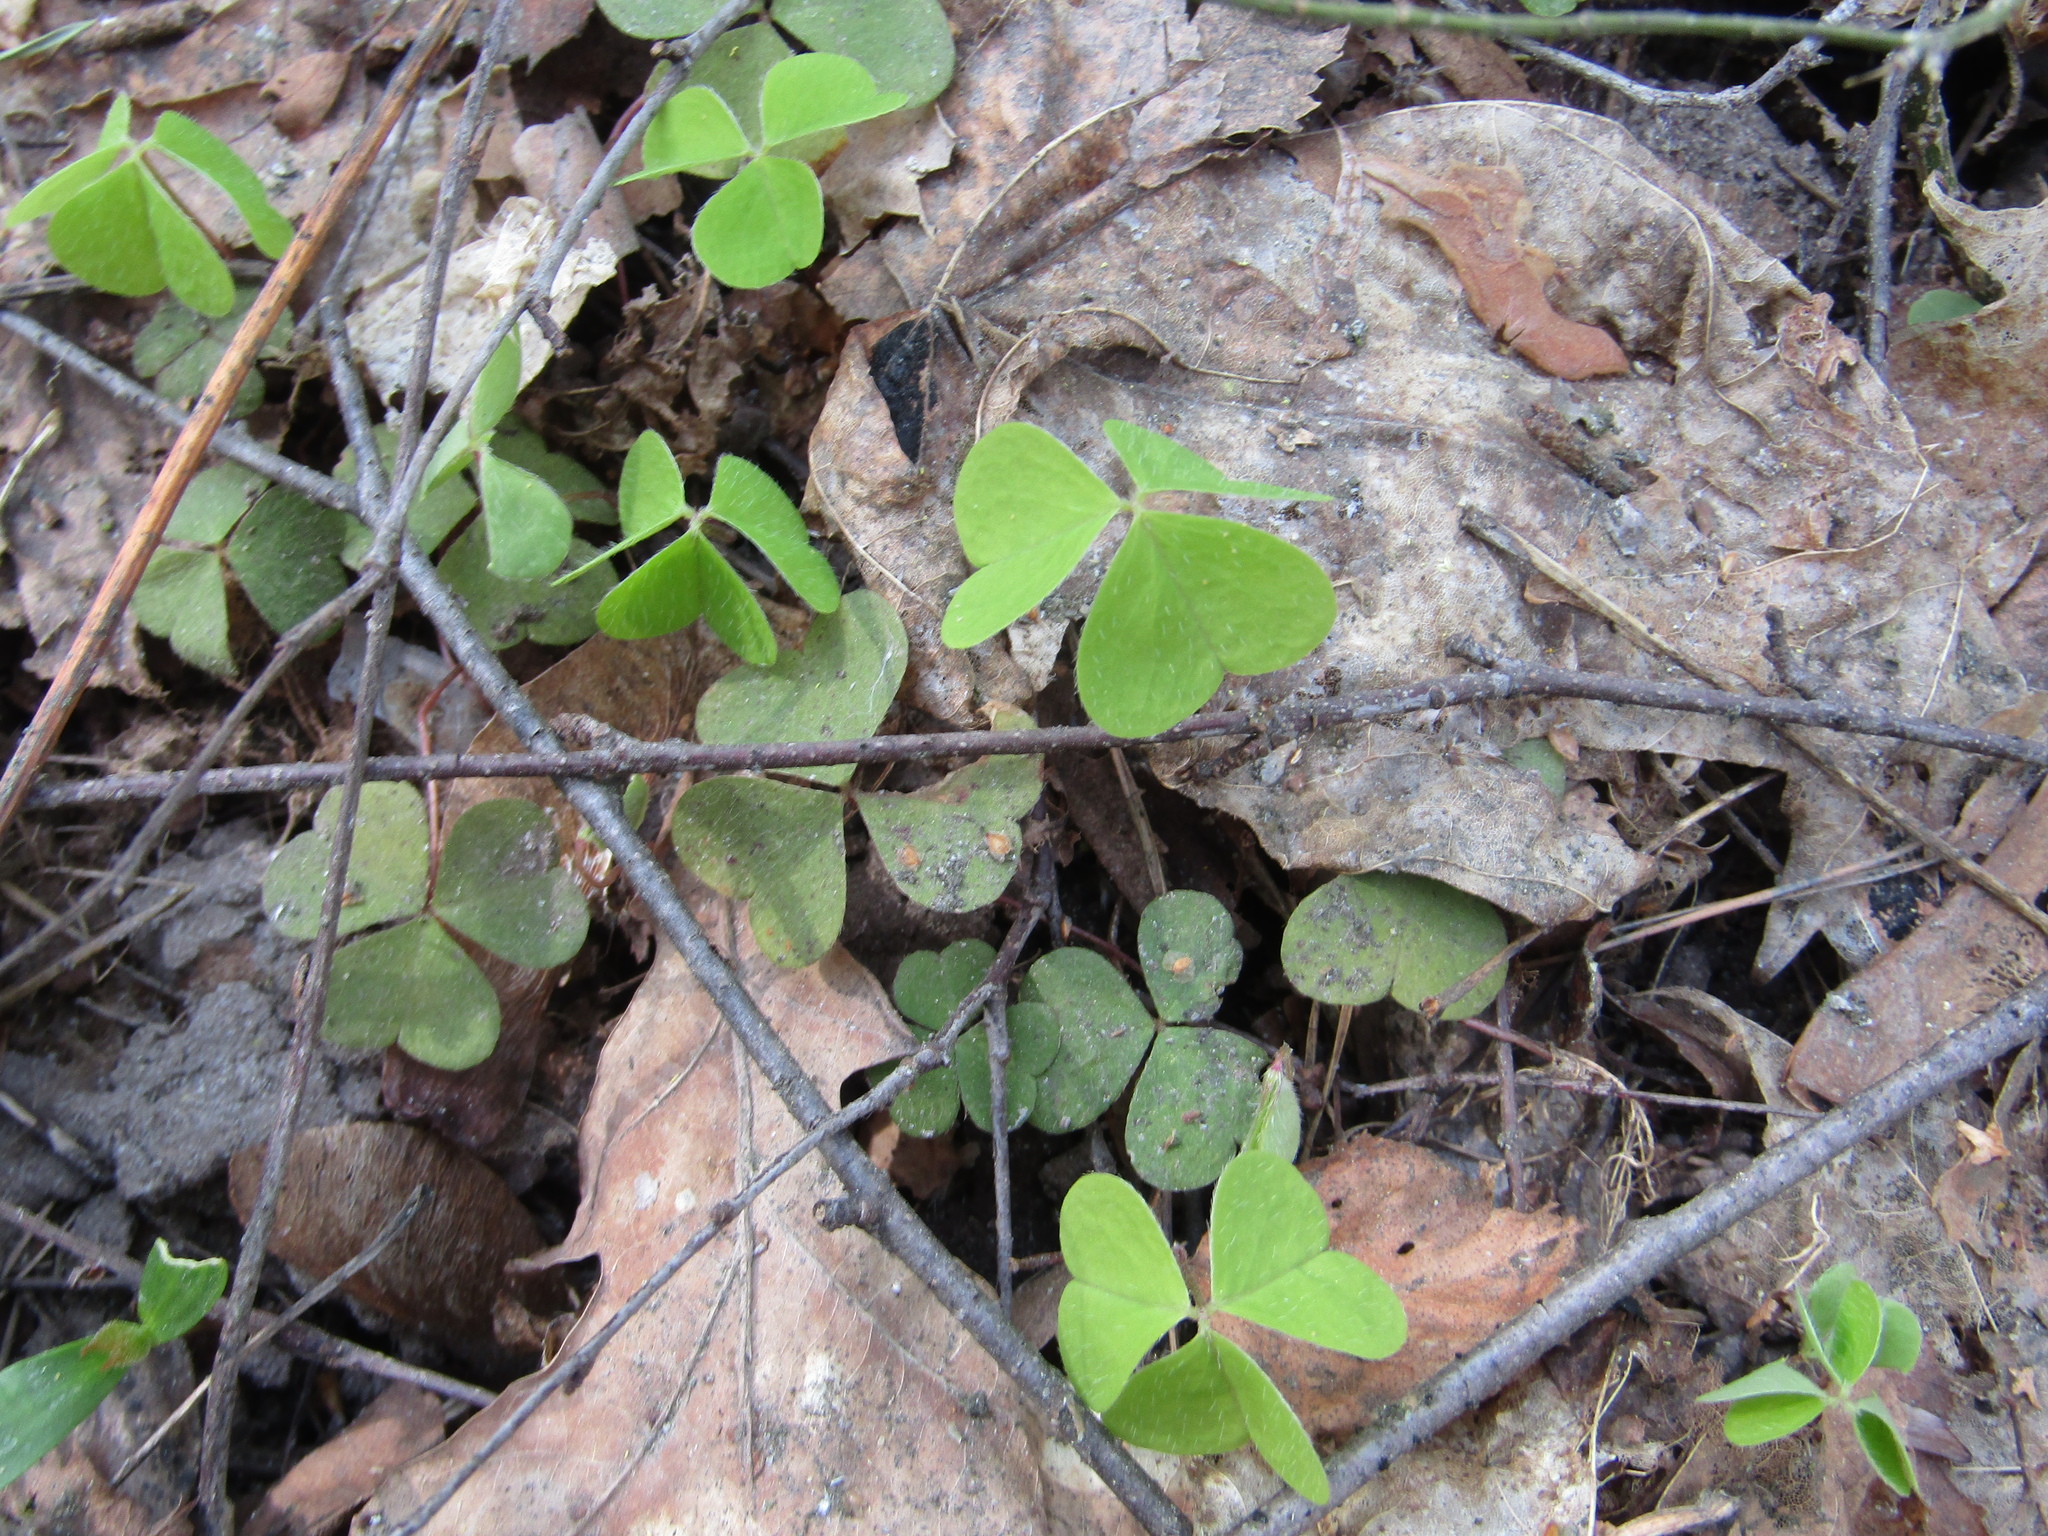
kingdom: Plantae
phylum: Tracheophyta
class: Magnoliopsida
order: Oxalidales
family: Oxalidaceae
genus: Oxalis
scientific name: Oxalis acetosella
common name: Wood-sorrel
